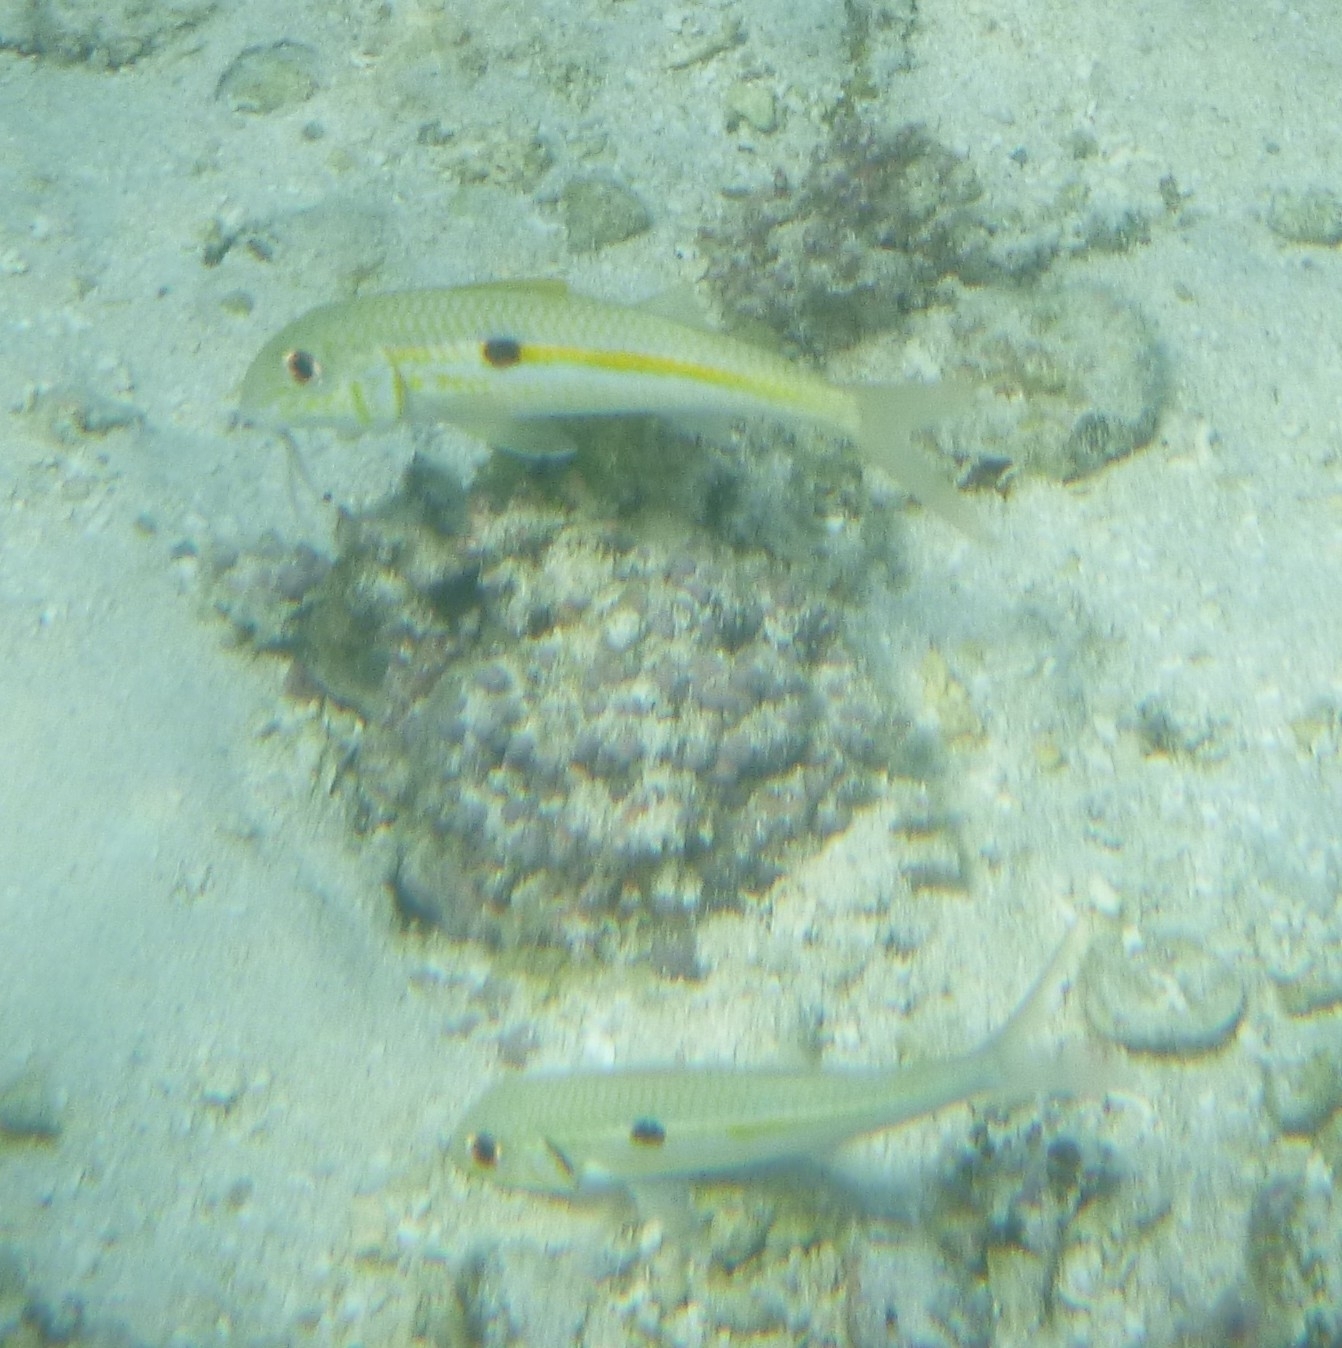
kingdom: Animalia
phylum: Chordata
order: Perciformes
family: Mullidae
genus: Mulloidichthys
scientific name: Mulloidichthys flavolineatus
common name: Yellowstripe goatfish
